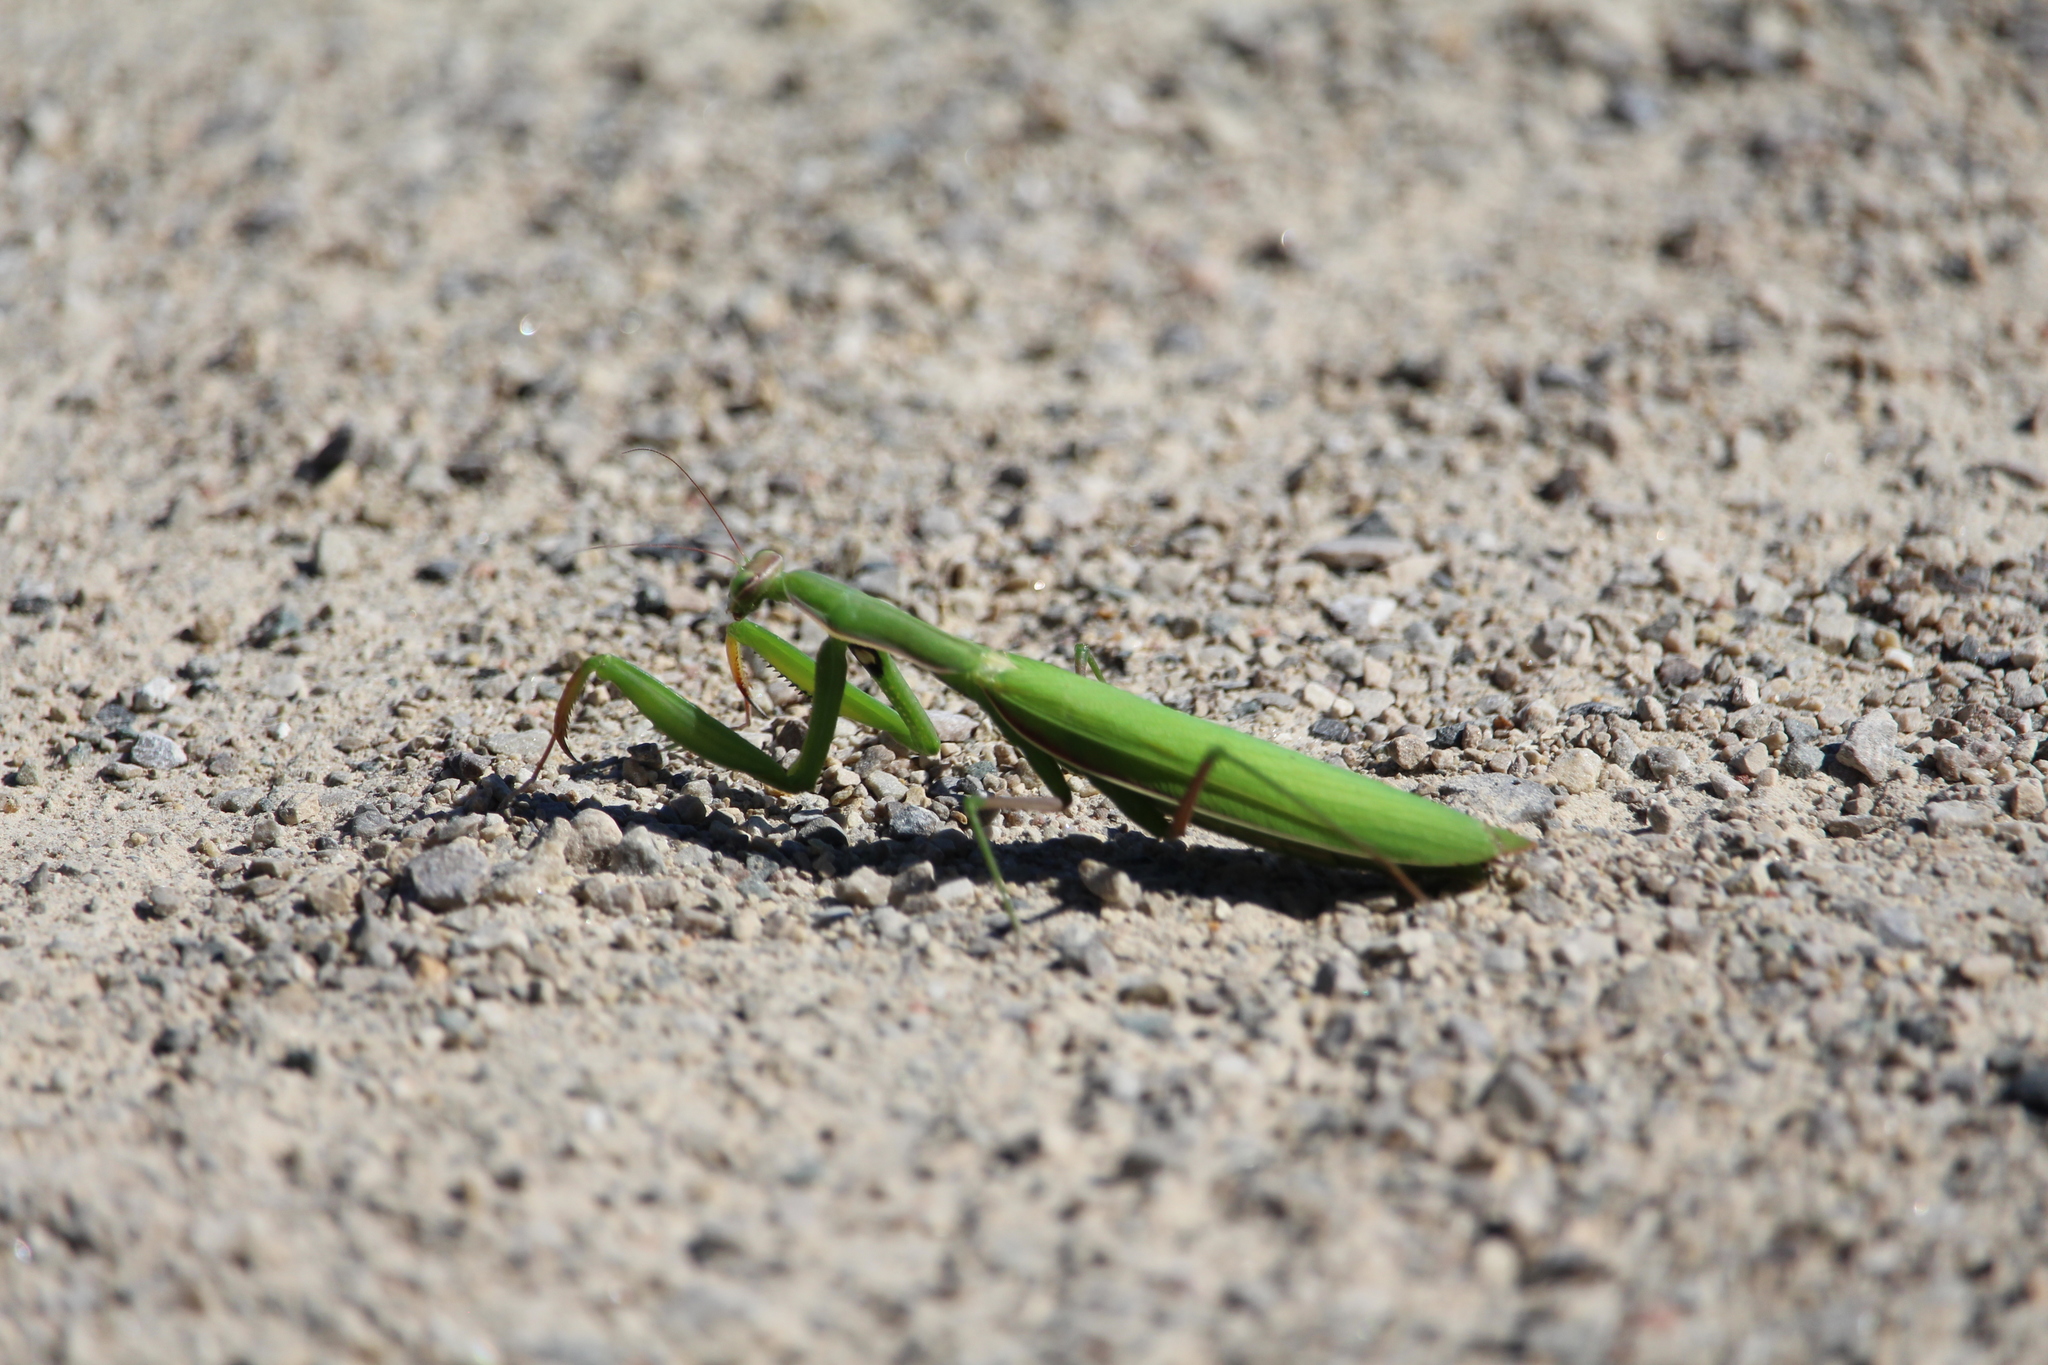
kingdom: Animalia
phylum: Arthropoda
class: Insecta
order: Mantodea
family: Mantidae
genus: Mantis
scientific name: Mantis religiosa
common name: Praying mantis
